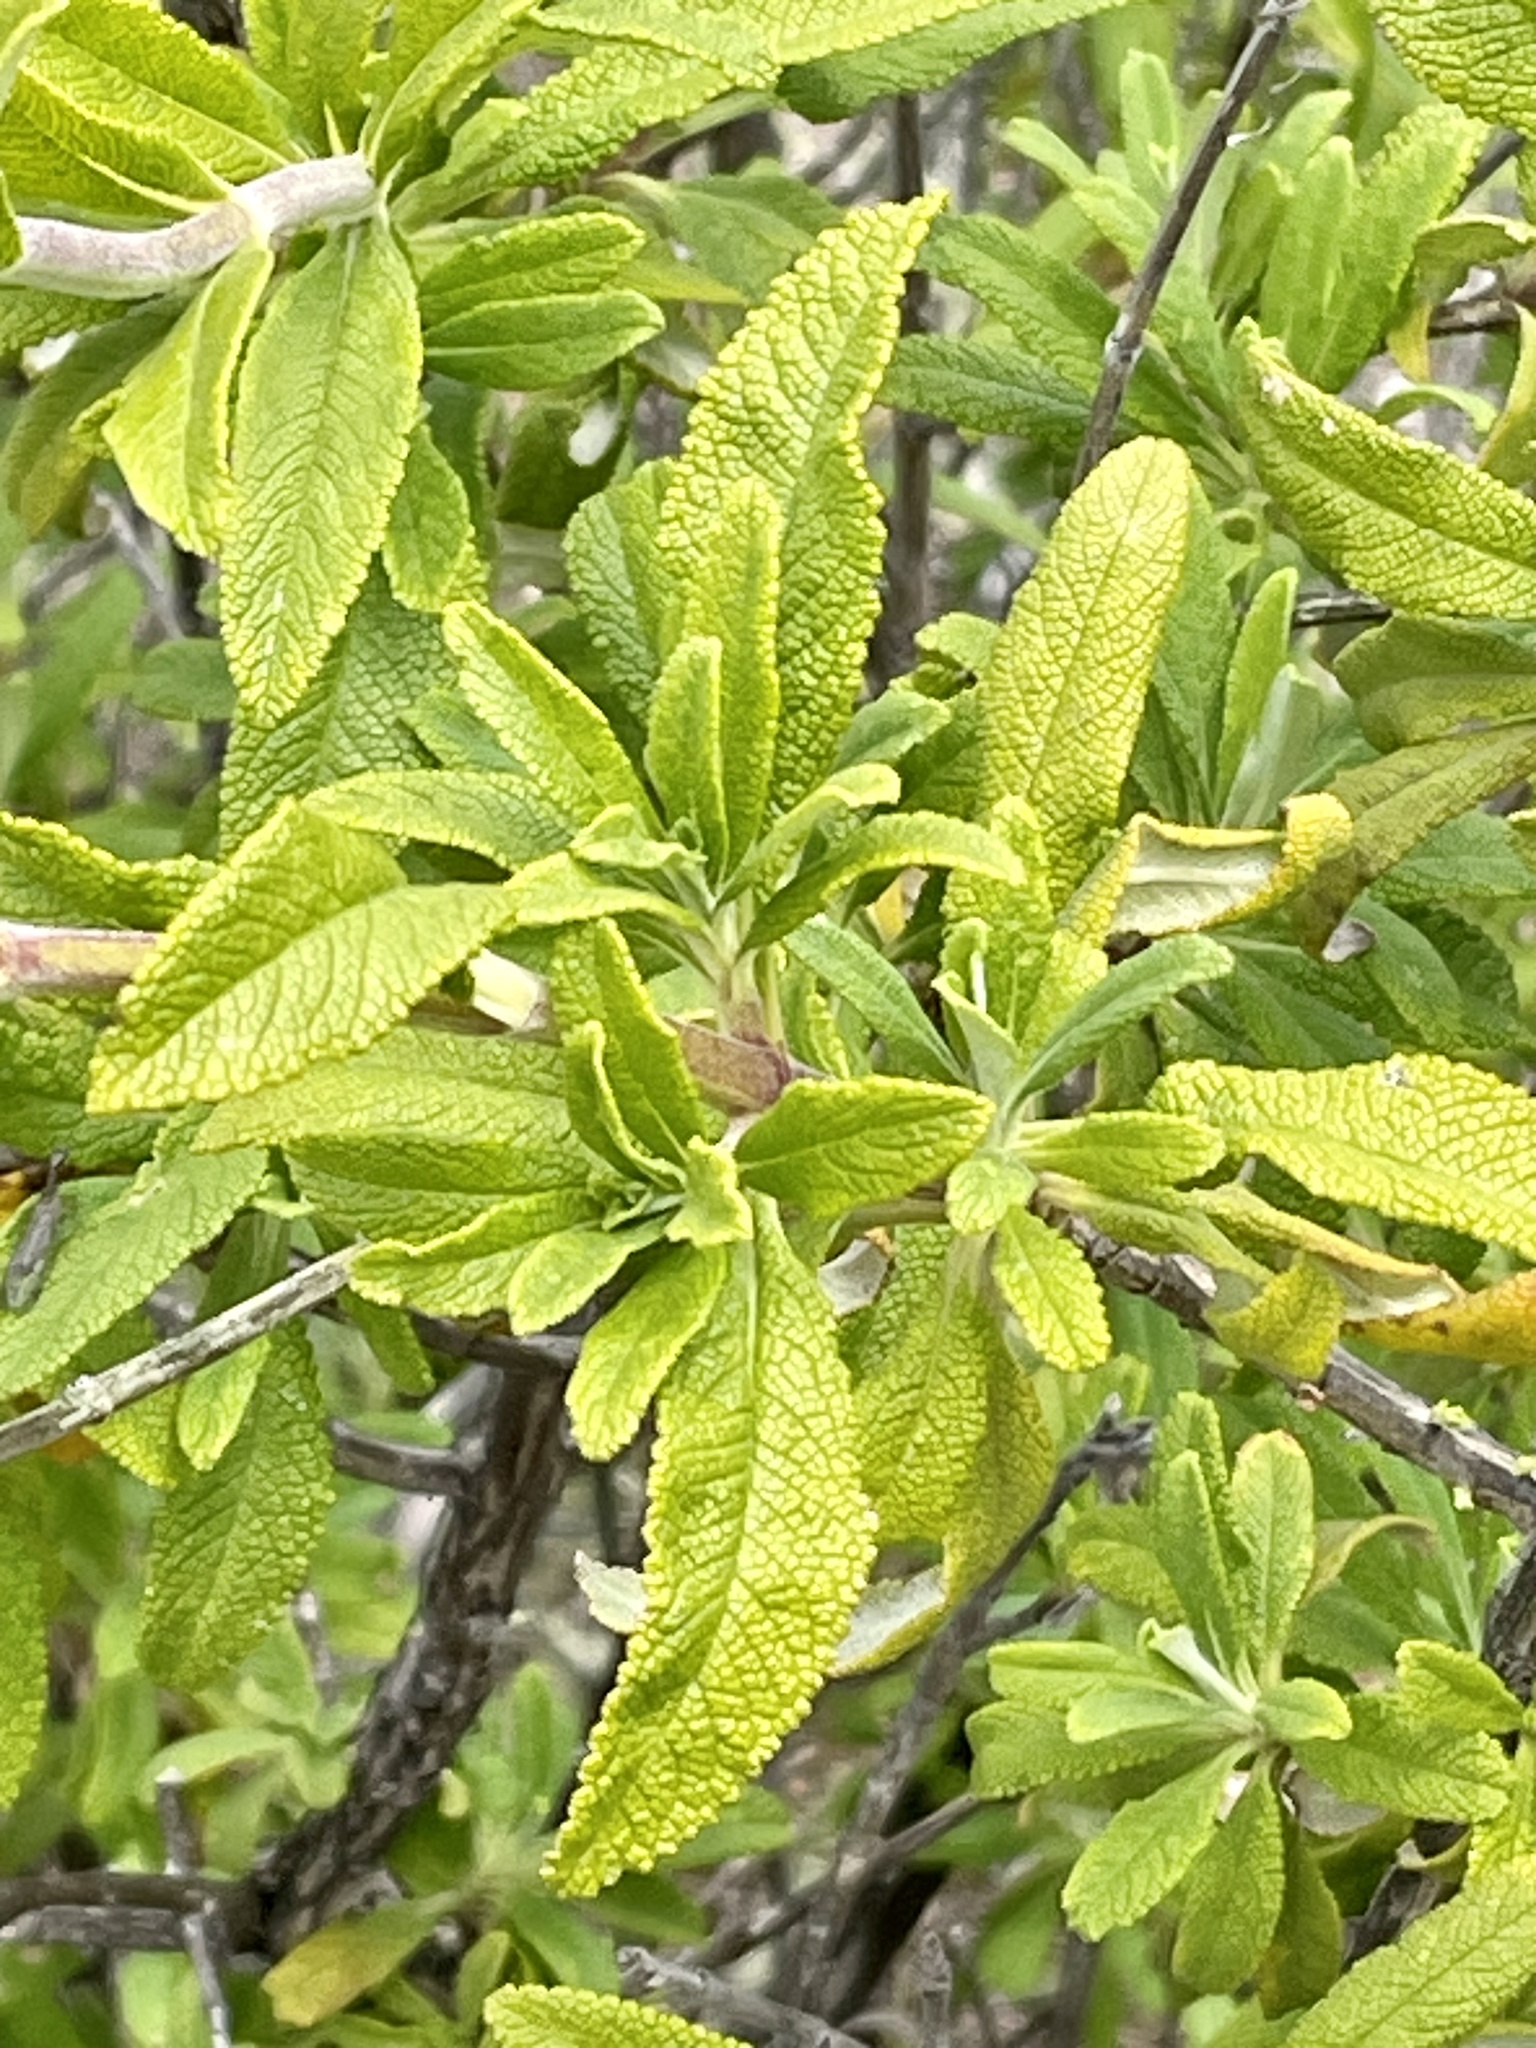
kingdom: Plantae
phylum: Tracheophyta
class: Magnoliopsida
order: Lamiales
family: Lamiaceae
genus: Salvia
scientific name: Salvia mellifera
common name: Black sage
